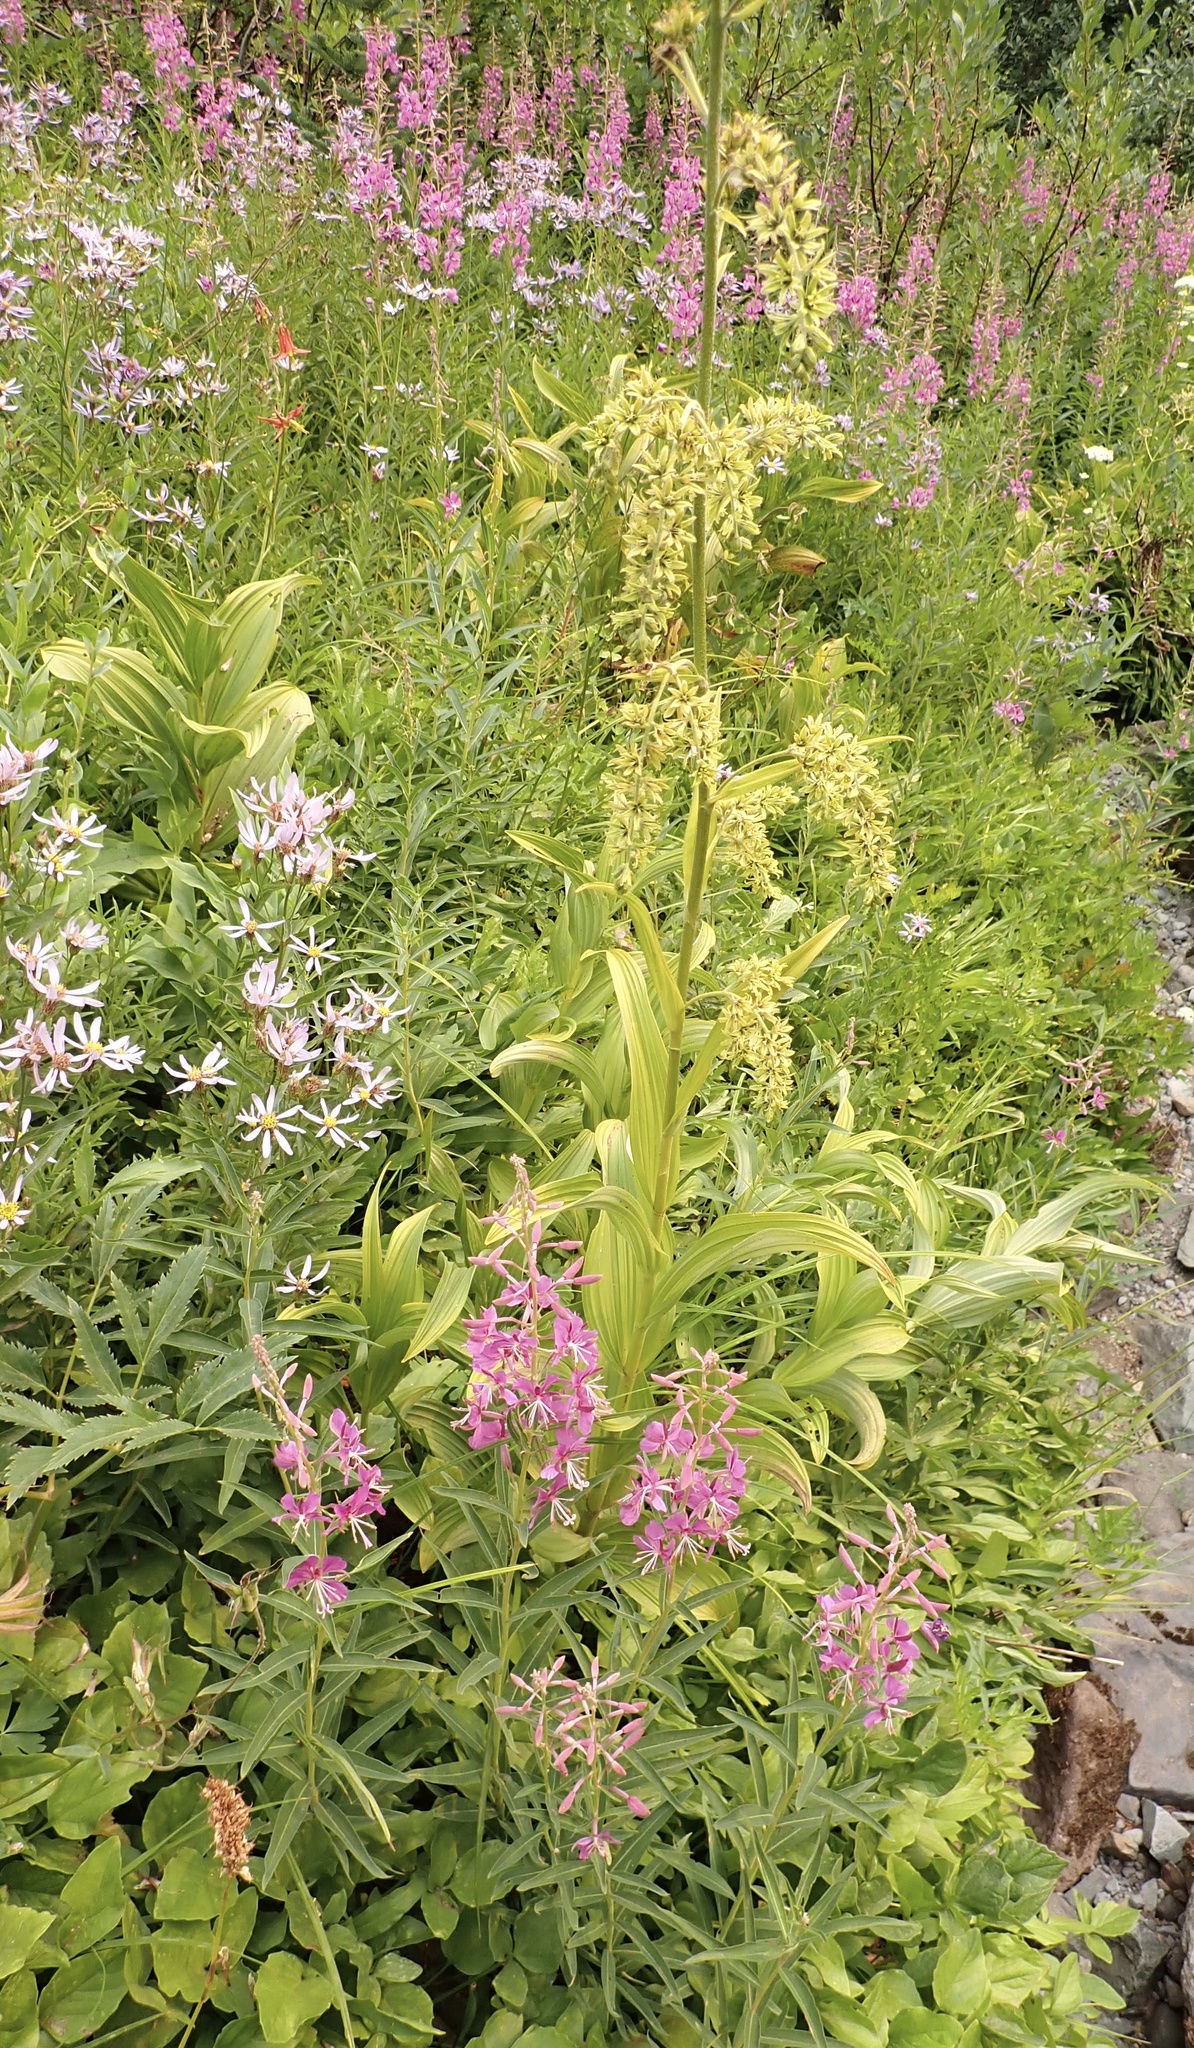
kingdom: Plantae
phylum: Tracheophyta
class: Liliopsida
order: Liliales
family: Melanthiaceae
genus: Veratrum
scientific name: Veratrum viride
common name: American false hellebore
